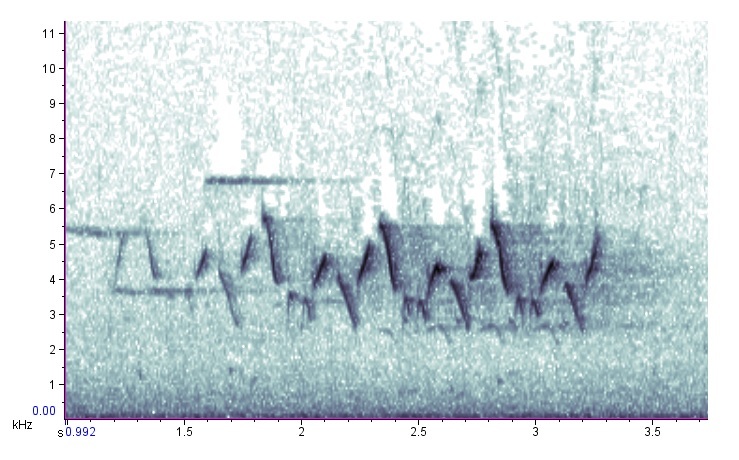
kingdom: Animalia
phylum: Chordata
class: Aves
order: Passeriformes
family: Parulidae
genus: Geothlypis
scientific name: Geothlypis trichas
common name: Common yellowthroat
